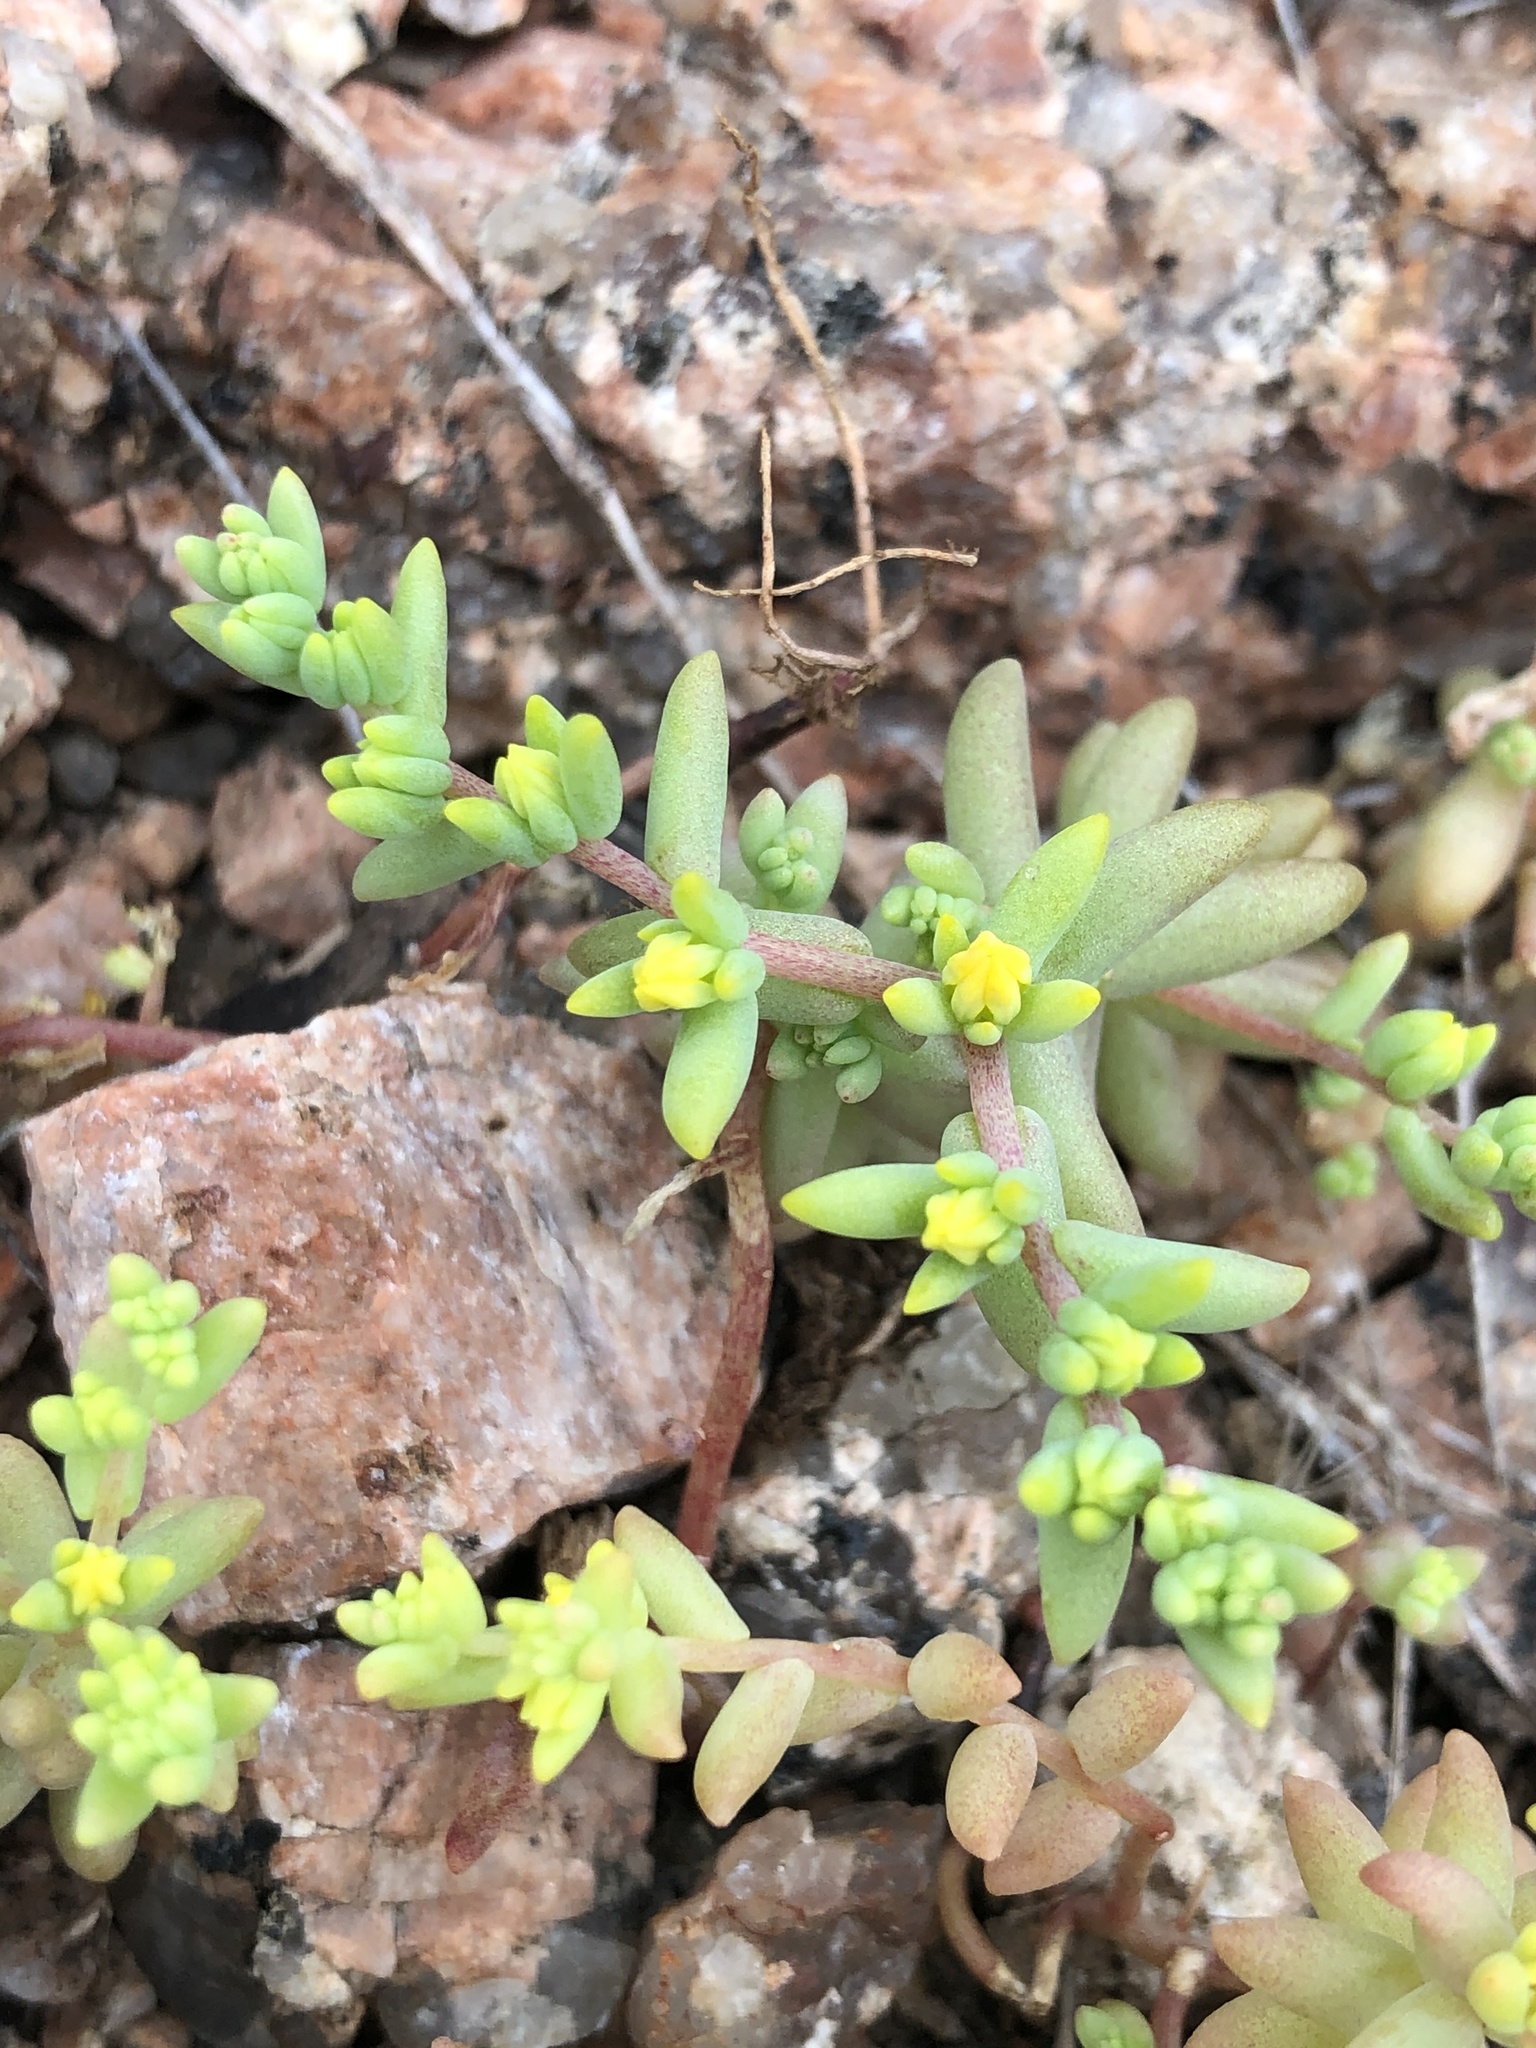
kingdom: Plantae
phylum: Tracheophyta
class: Magnoliopsida
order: Saxifragales
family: Crassulaceae
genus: Sedum
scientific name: Sedum nuttallii
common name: Yellow stonecrop
